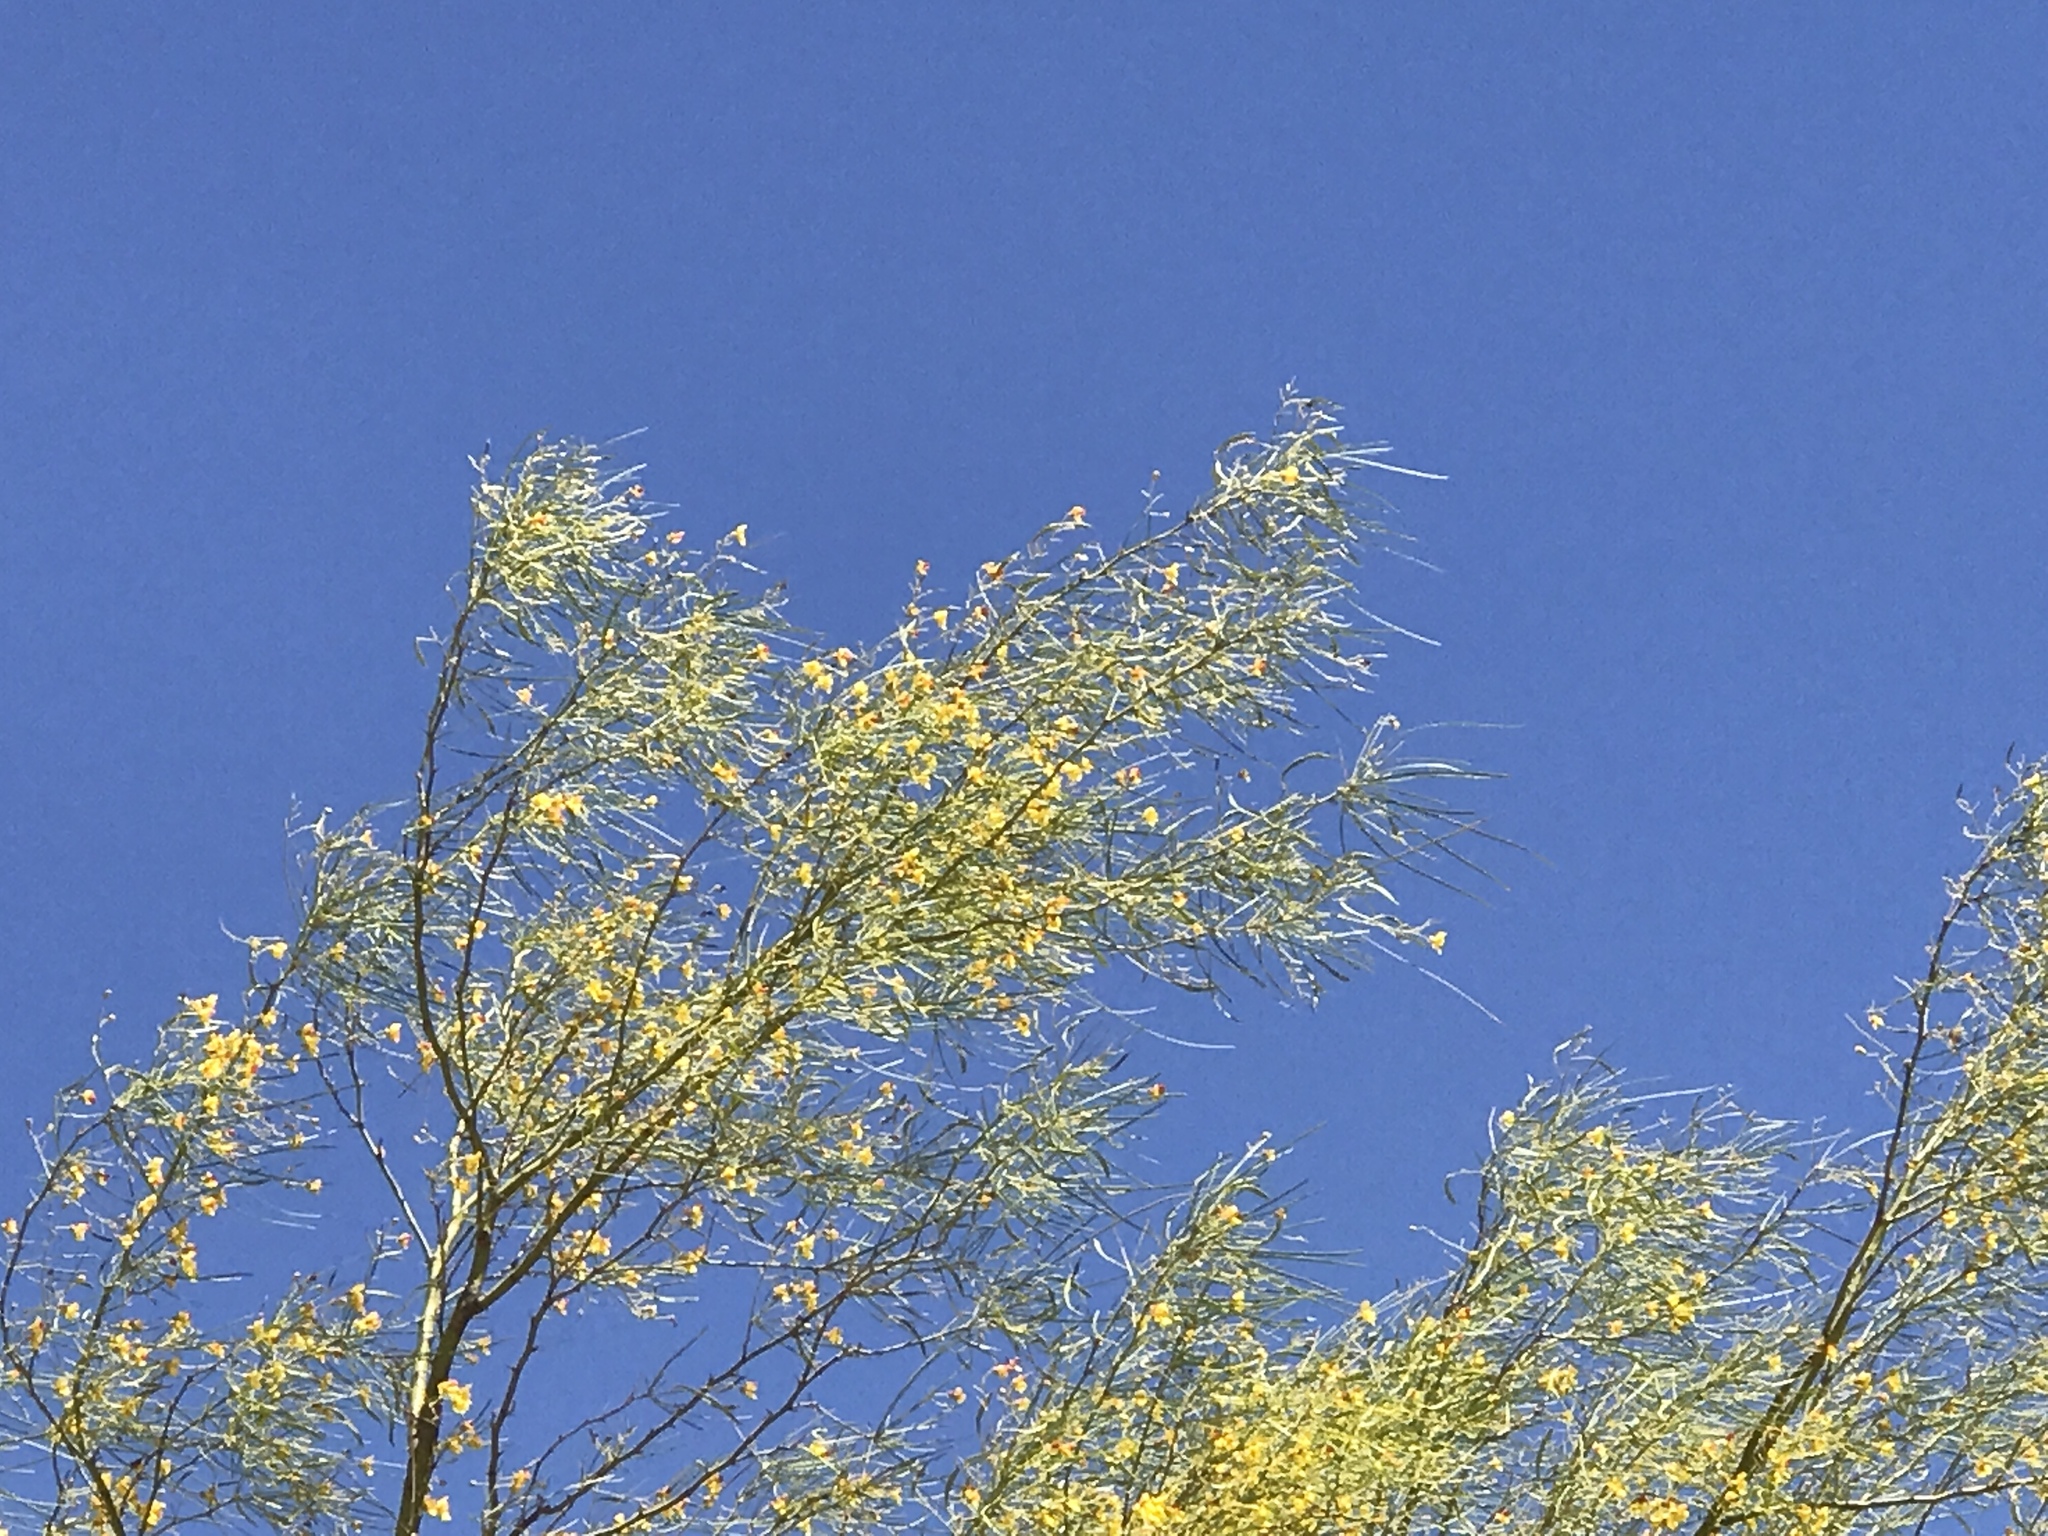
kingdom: Plantae
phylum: Tracheophyta
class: Magnoliopsida
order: Fabales
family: Fabaceae
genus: Parkinsonia
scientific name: Parkinsonia aculeata
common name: Jerusalem thorn
